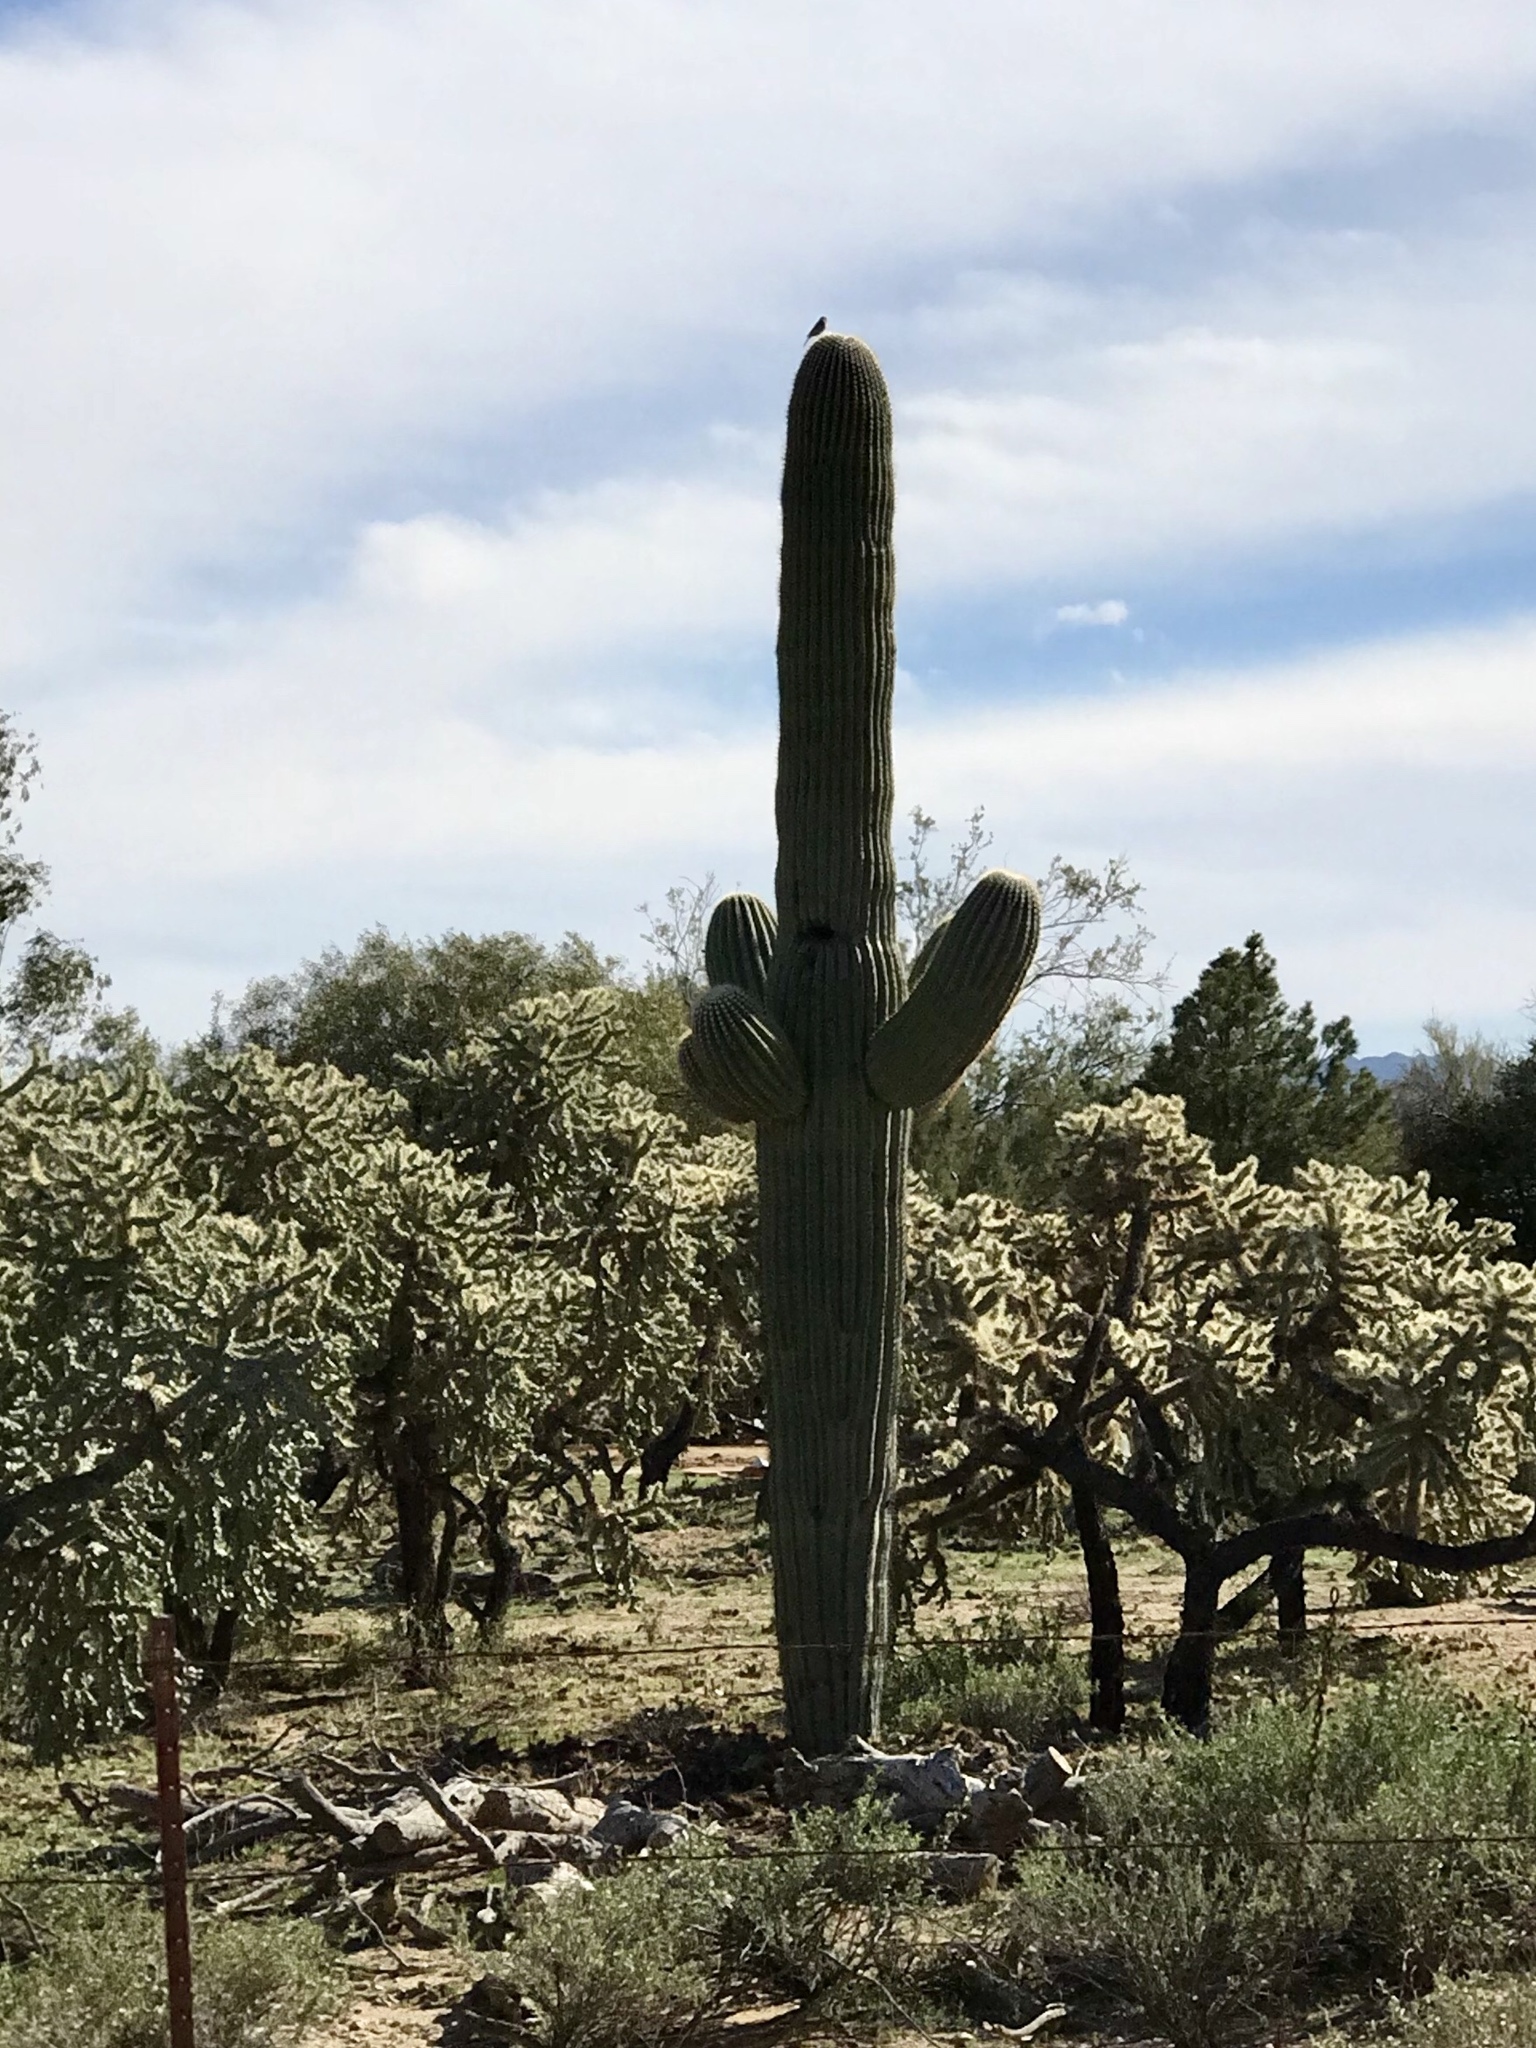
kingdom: Plantae
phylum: Tracheophyta
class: Magnoliopsida
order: Caryophyllales
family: Cactaceae
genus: Carnegiea
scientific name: Carnegiea gigantea
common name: Saguaro
